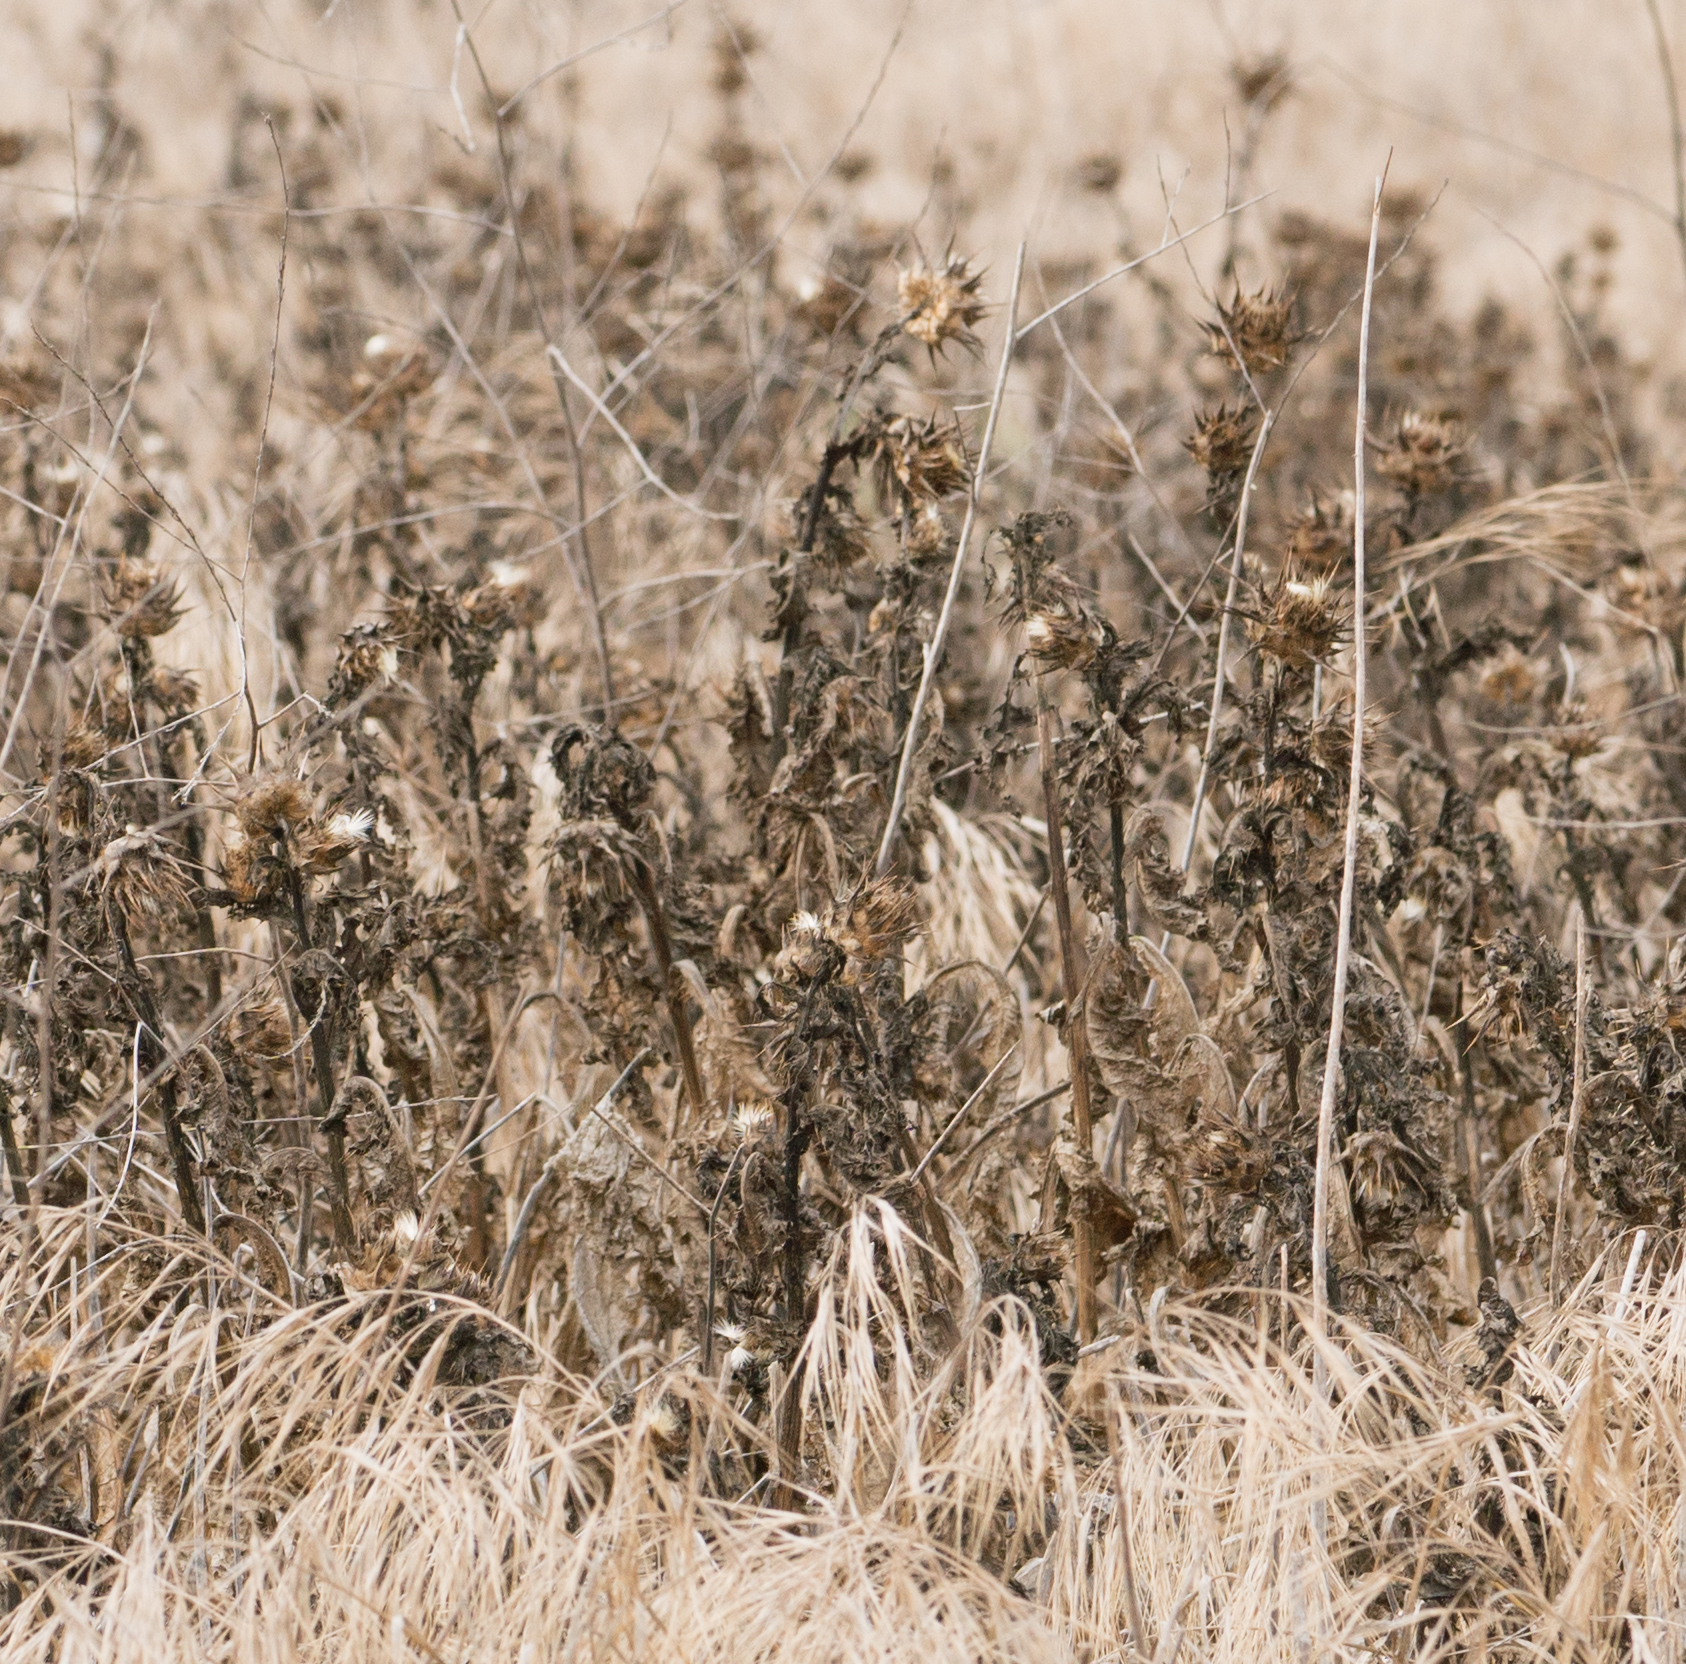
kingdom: Plantae
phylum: Tracheophyta
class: Magnoliopsida
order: Asterales
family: Asteraceae
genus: Silybum
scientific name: Silybum marianum
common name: Milk thistle
